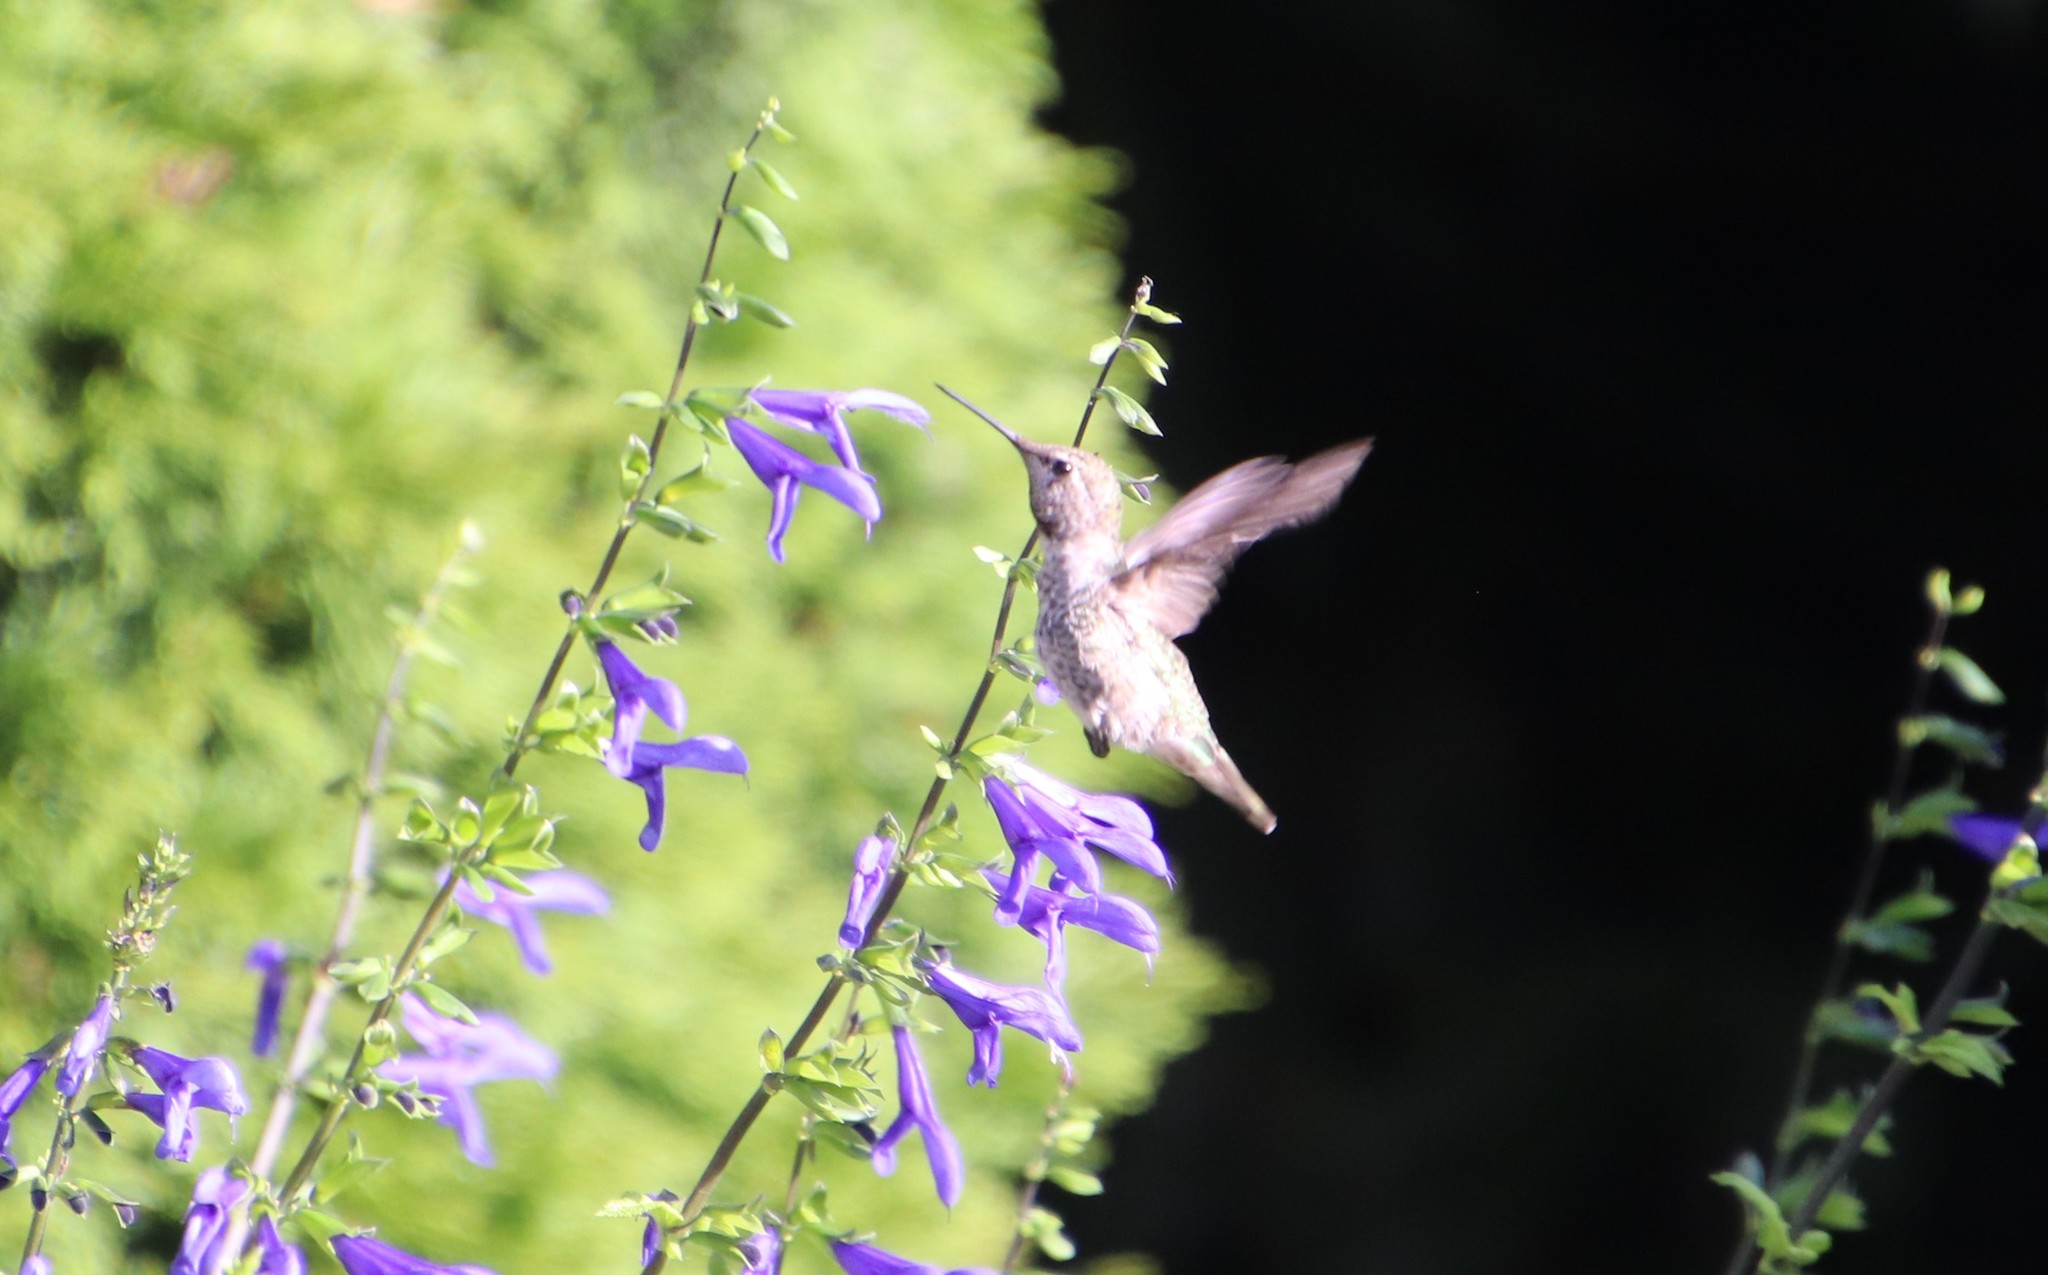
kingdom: Animalia
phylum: Chordata
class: Aves
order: Apodiformes
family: Trochilidae
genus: Calypte
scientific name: Calypte anna
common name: Anna's hummingbird
